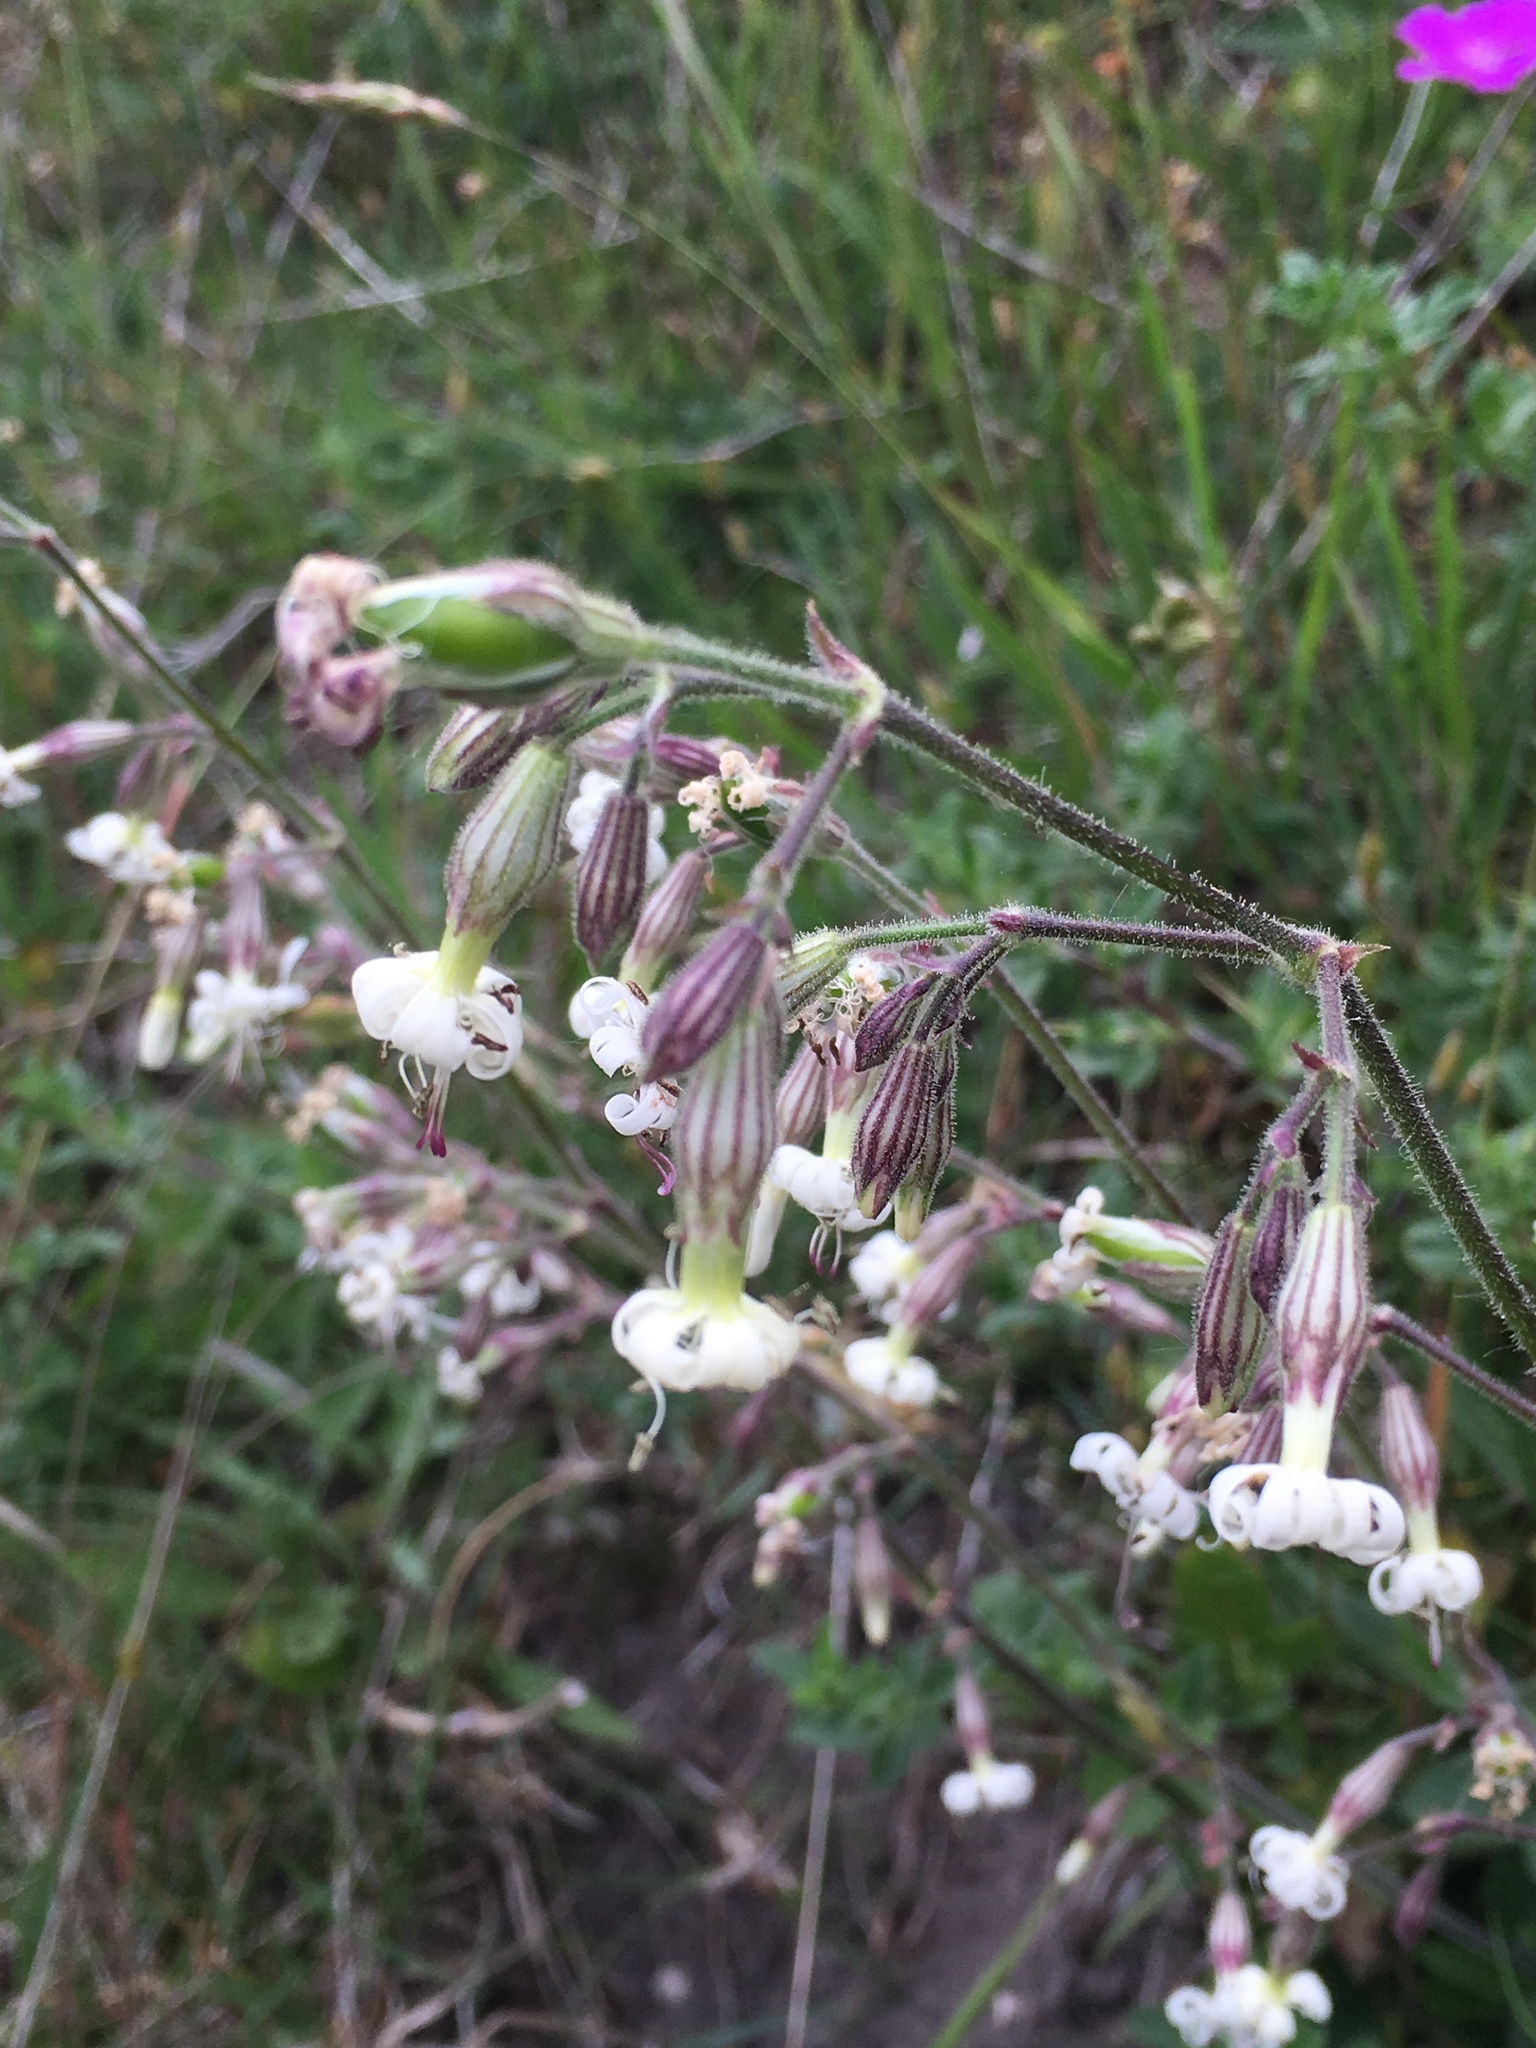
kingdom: Plantae
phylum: Tracheophyta
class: Magnoliopsida
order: Caryophyllales
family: Caryophyllaceae
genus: Silene
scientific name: Silene nutans
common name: Nottingham catchfly
